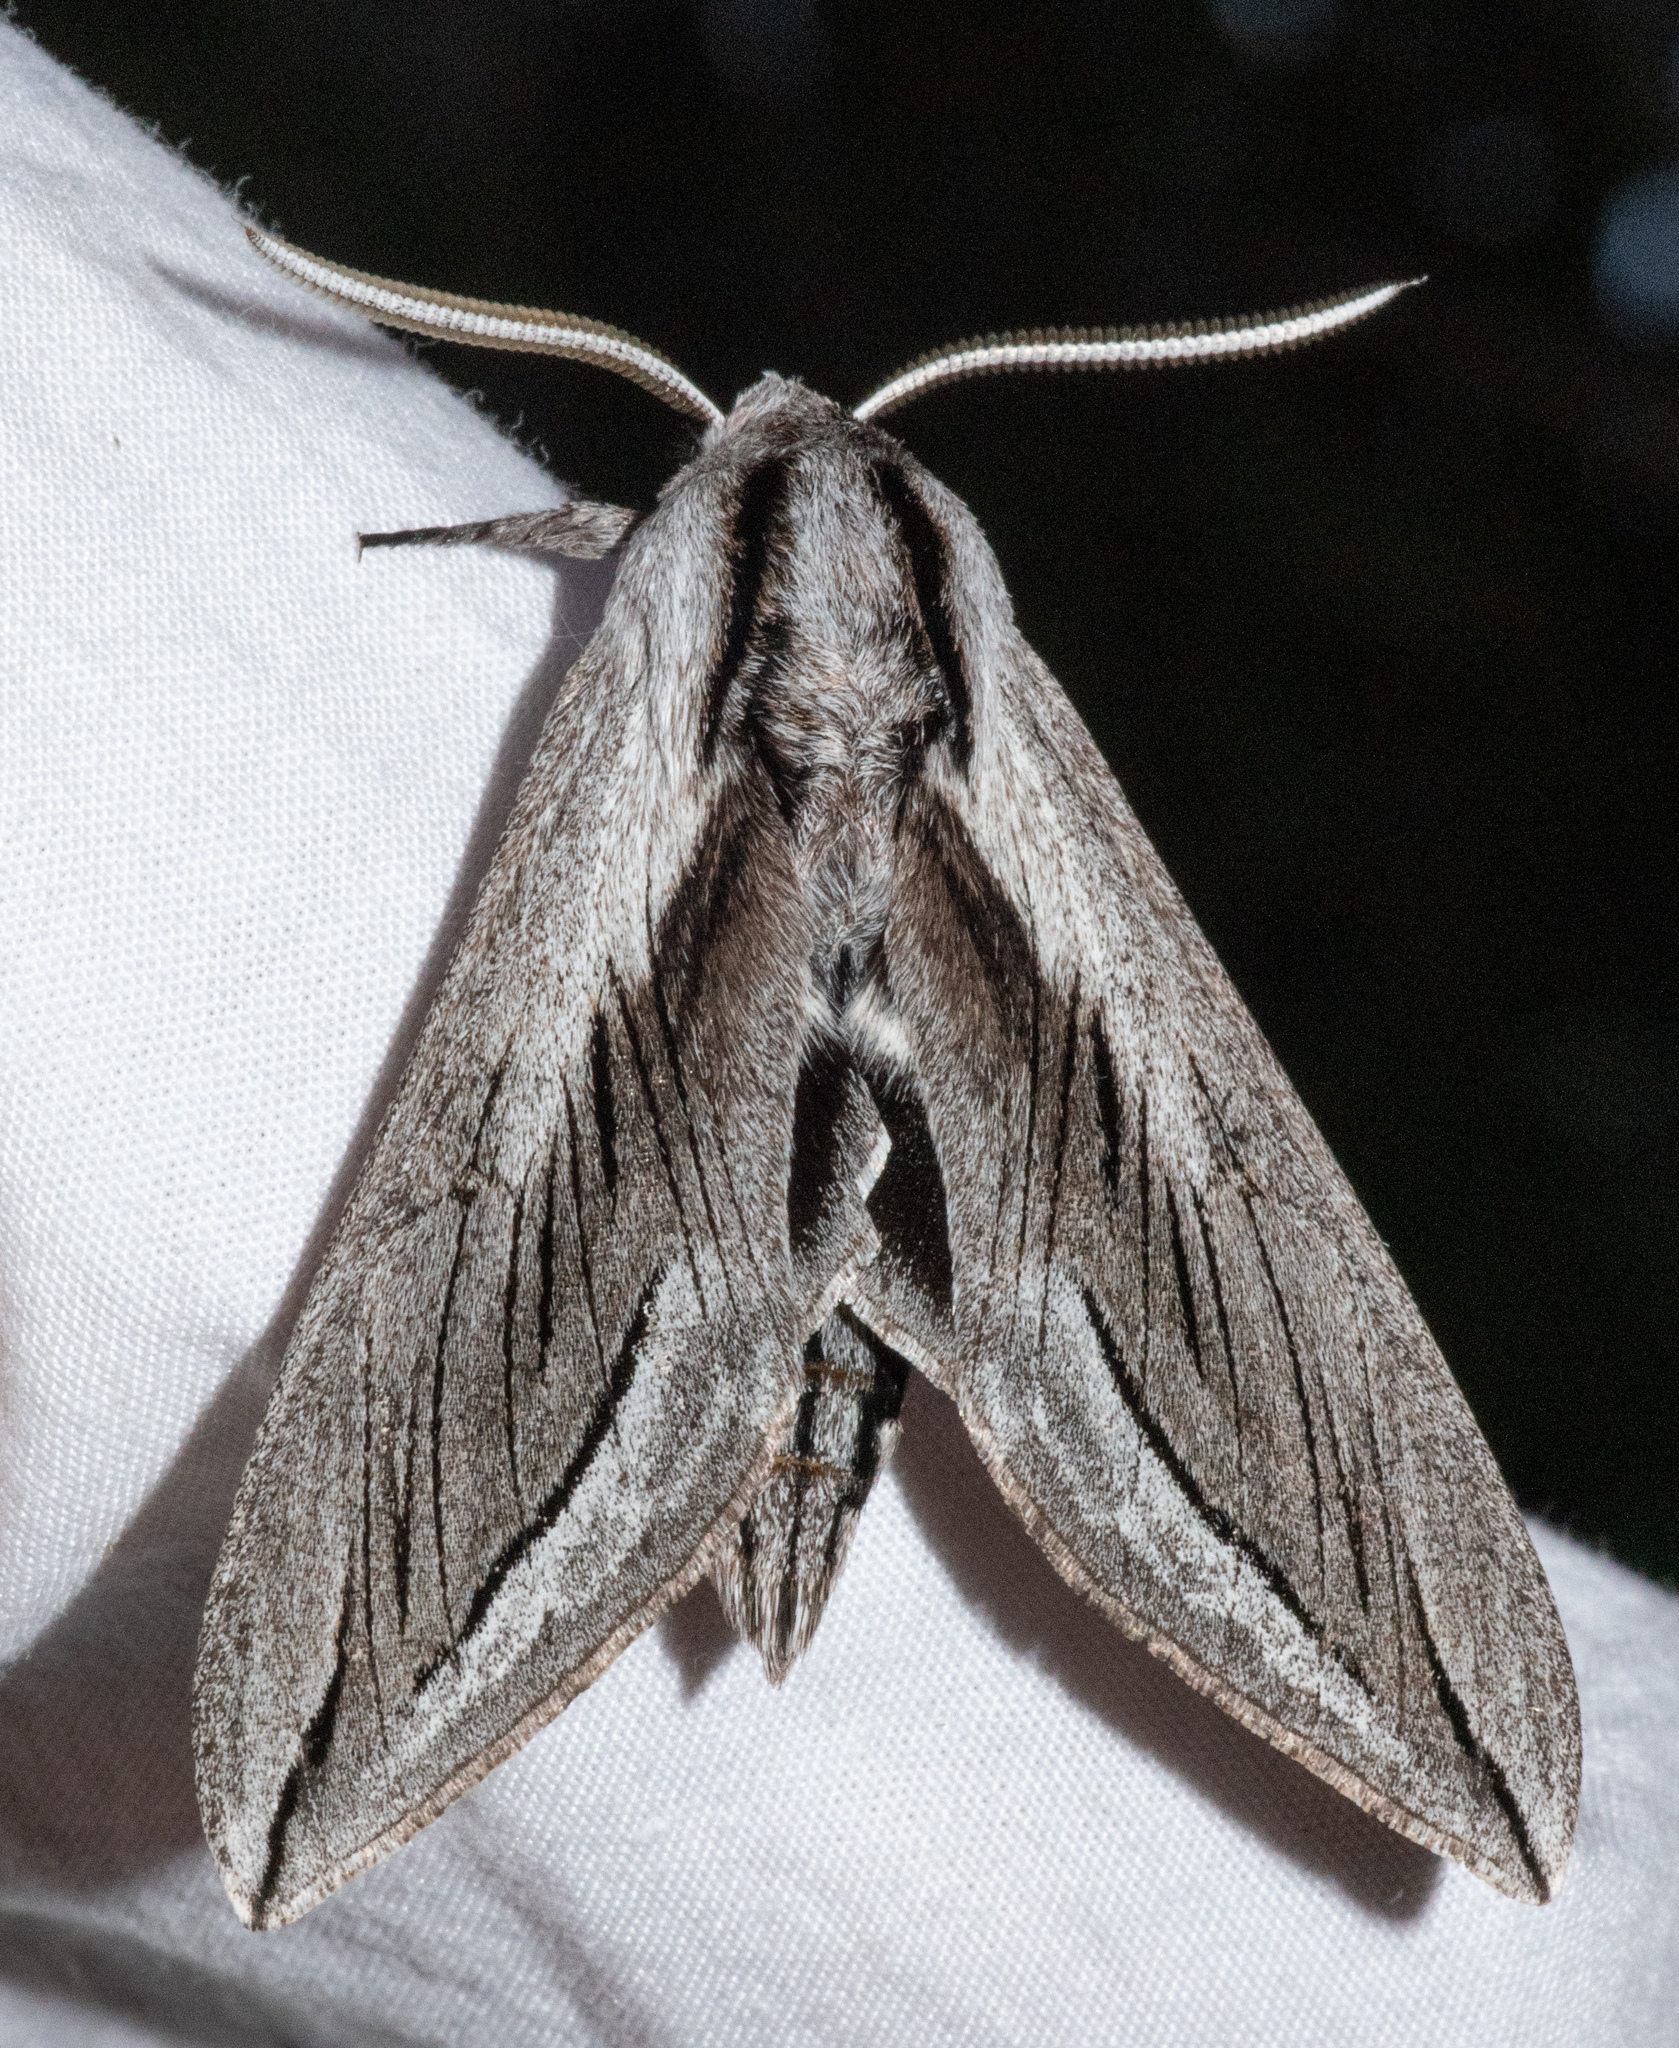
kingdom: Animalia
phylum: Arthropoda
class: Insecta
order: Lepidoptera
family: Sphingidae
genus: Sphinx
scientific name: Sphinx vashti
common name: Snowberry sphinx
